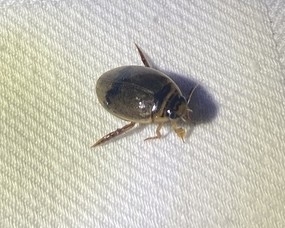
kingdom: Animalia
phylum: Arthropoda
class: Insecta
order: Coleoptera
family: Dytiscidae
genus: Thermonectus
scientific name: Thermonectus nigrofasciatus
